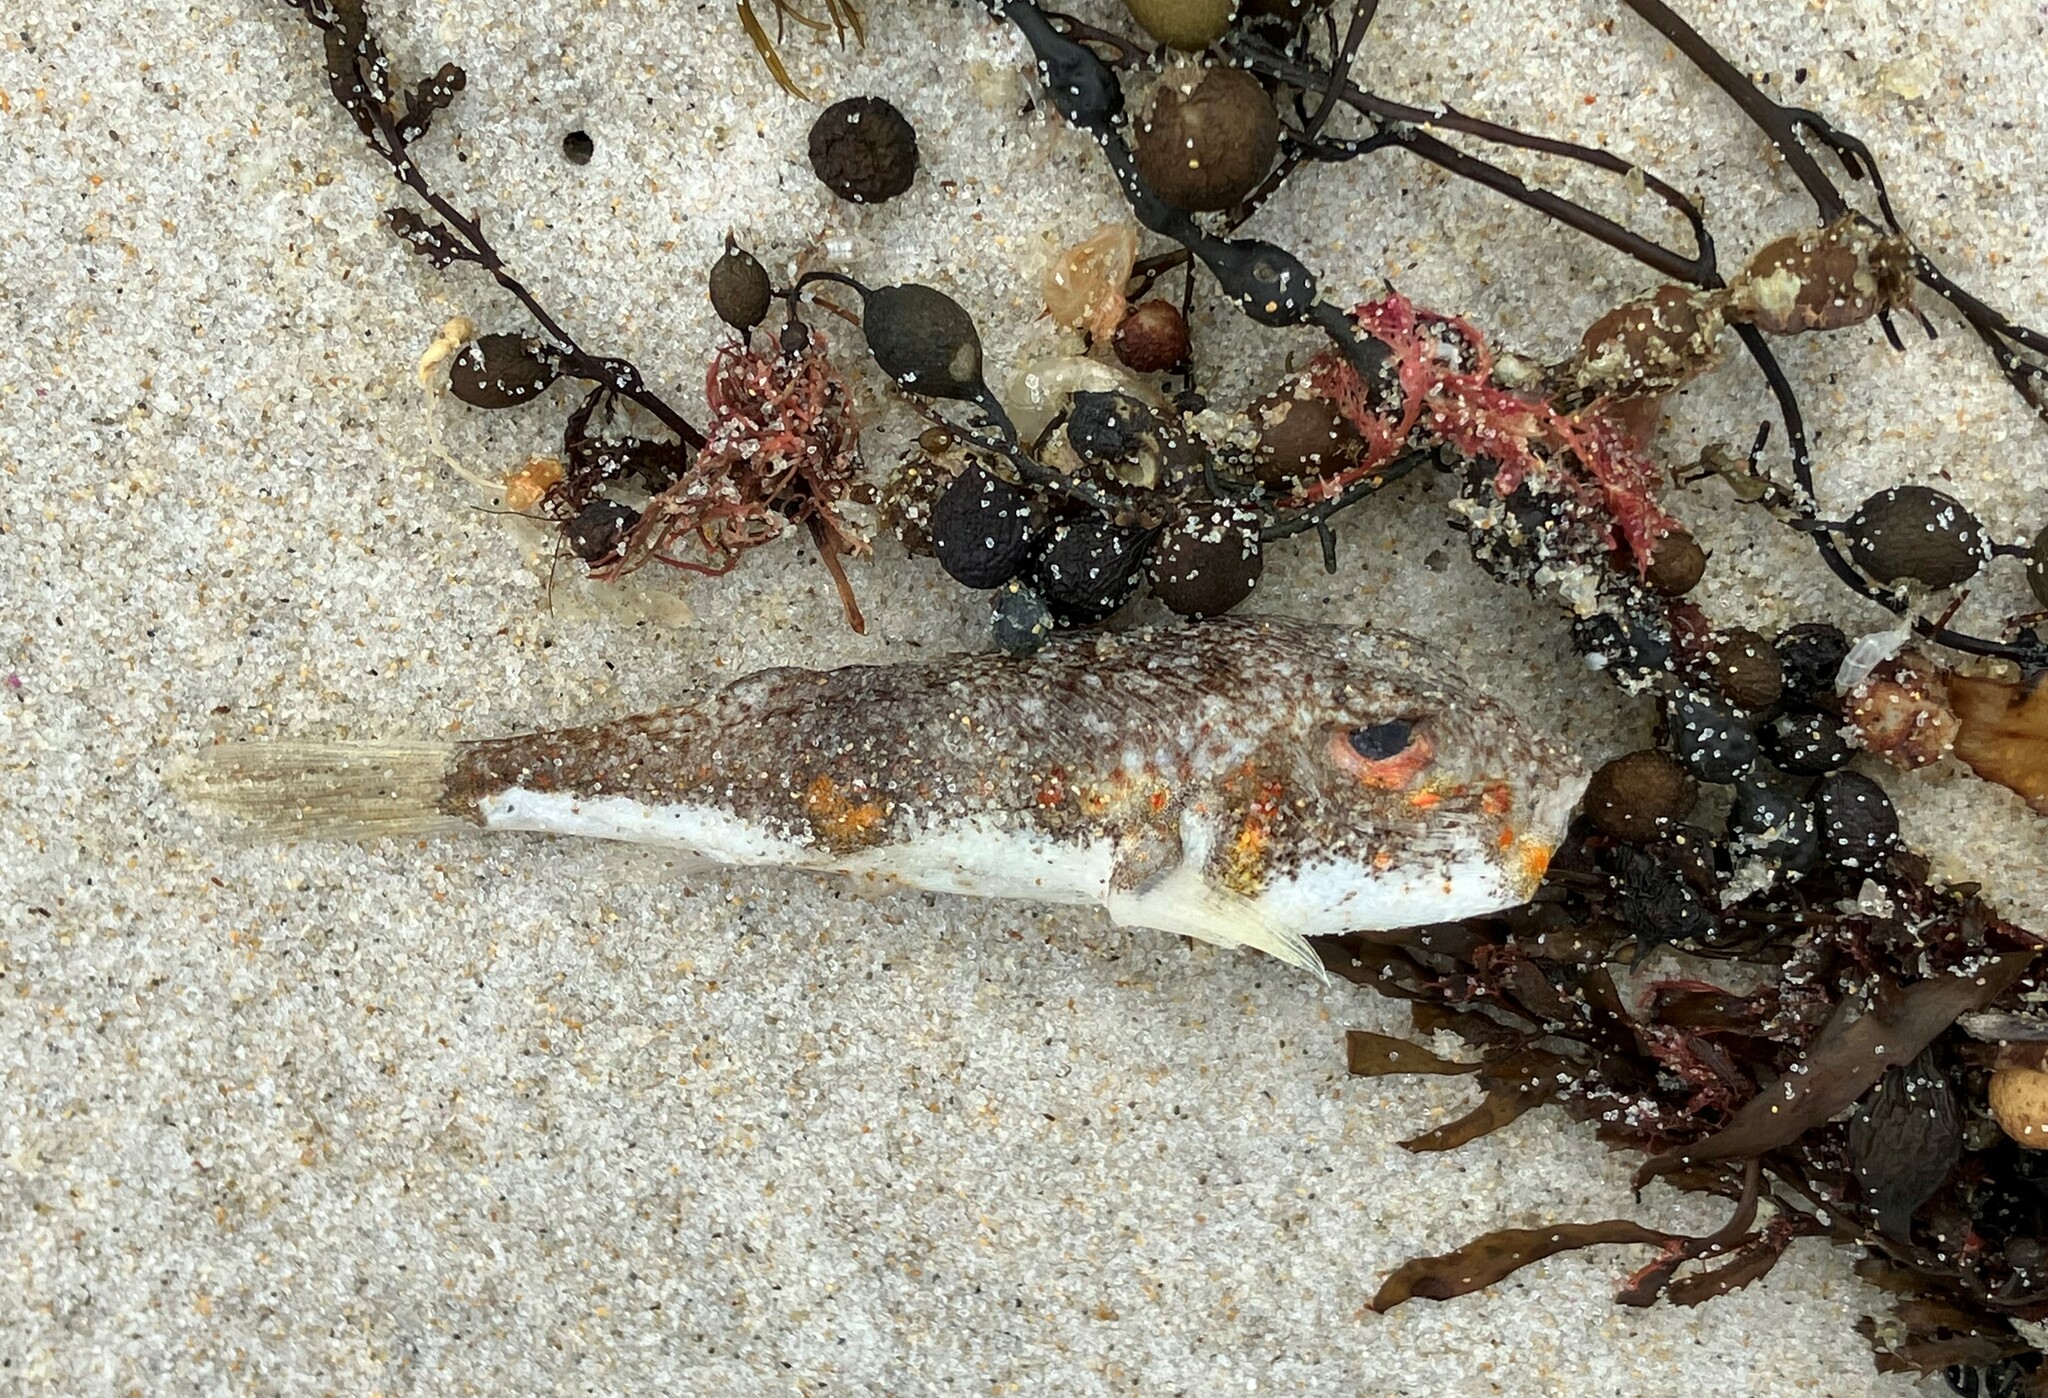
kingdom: Animalia
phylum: Chordata
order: Tetraodontiformes
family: Tetraodontidae
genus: Polyspina
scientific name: Polyspina piosae
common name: Orange-barred pufferfish
